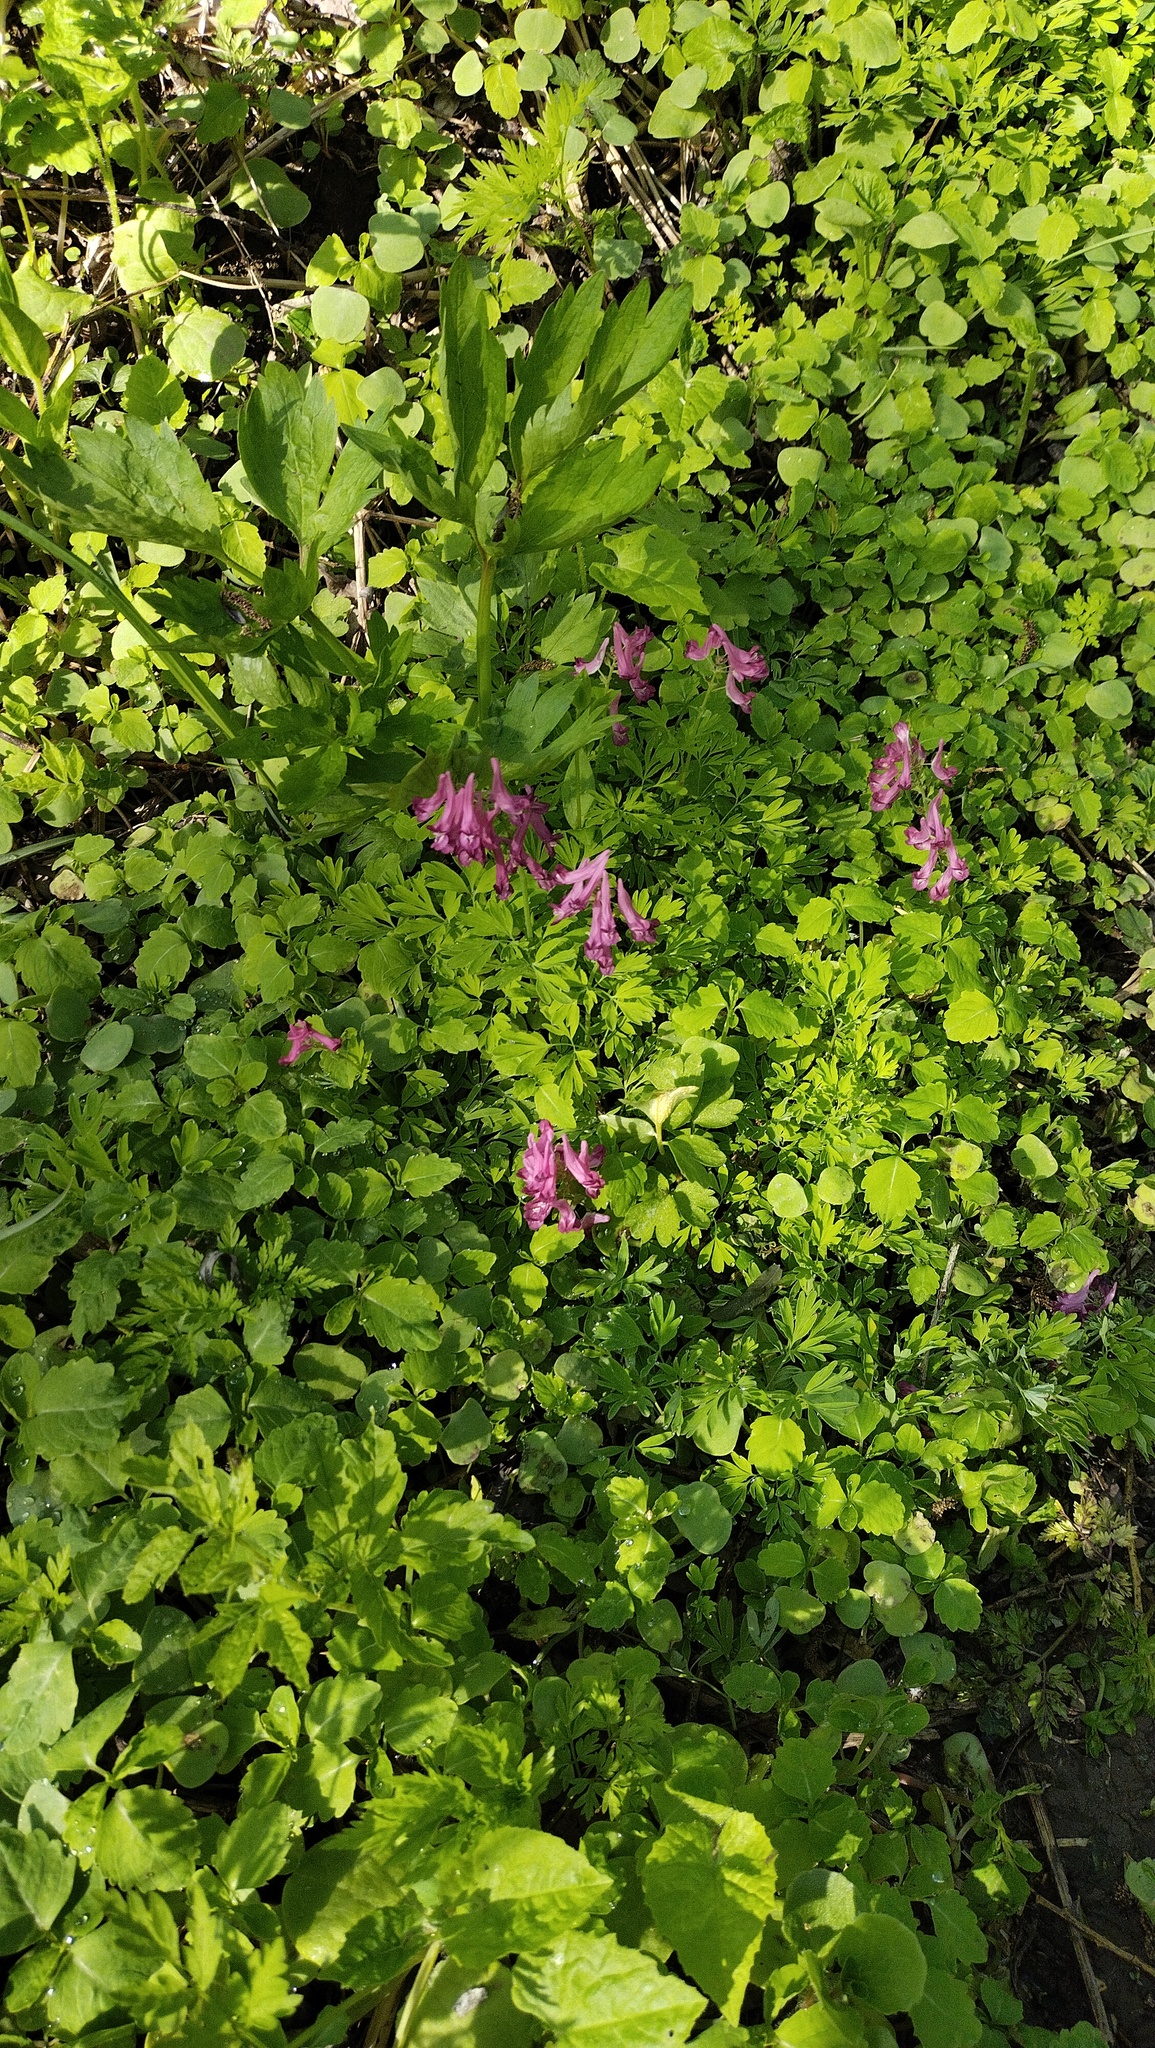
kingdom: Plantae
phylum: Tracheophyta
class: Magnoliopsida
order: Ranunculales
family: Papaveraceae
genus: Corydalis
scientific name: Corydalis buschii
